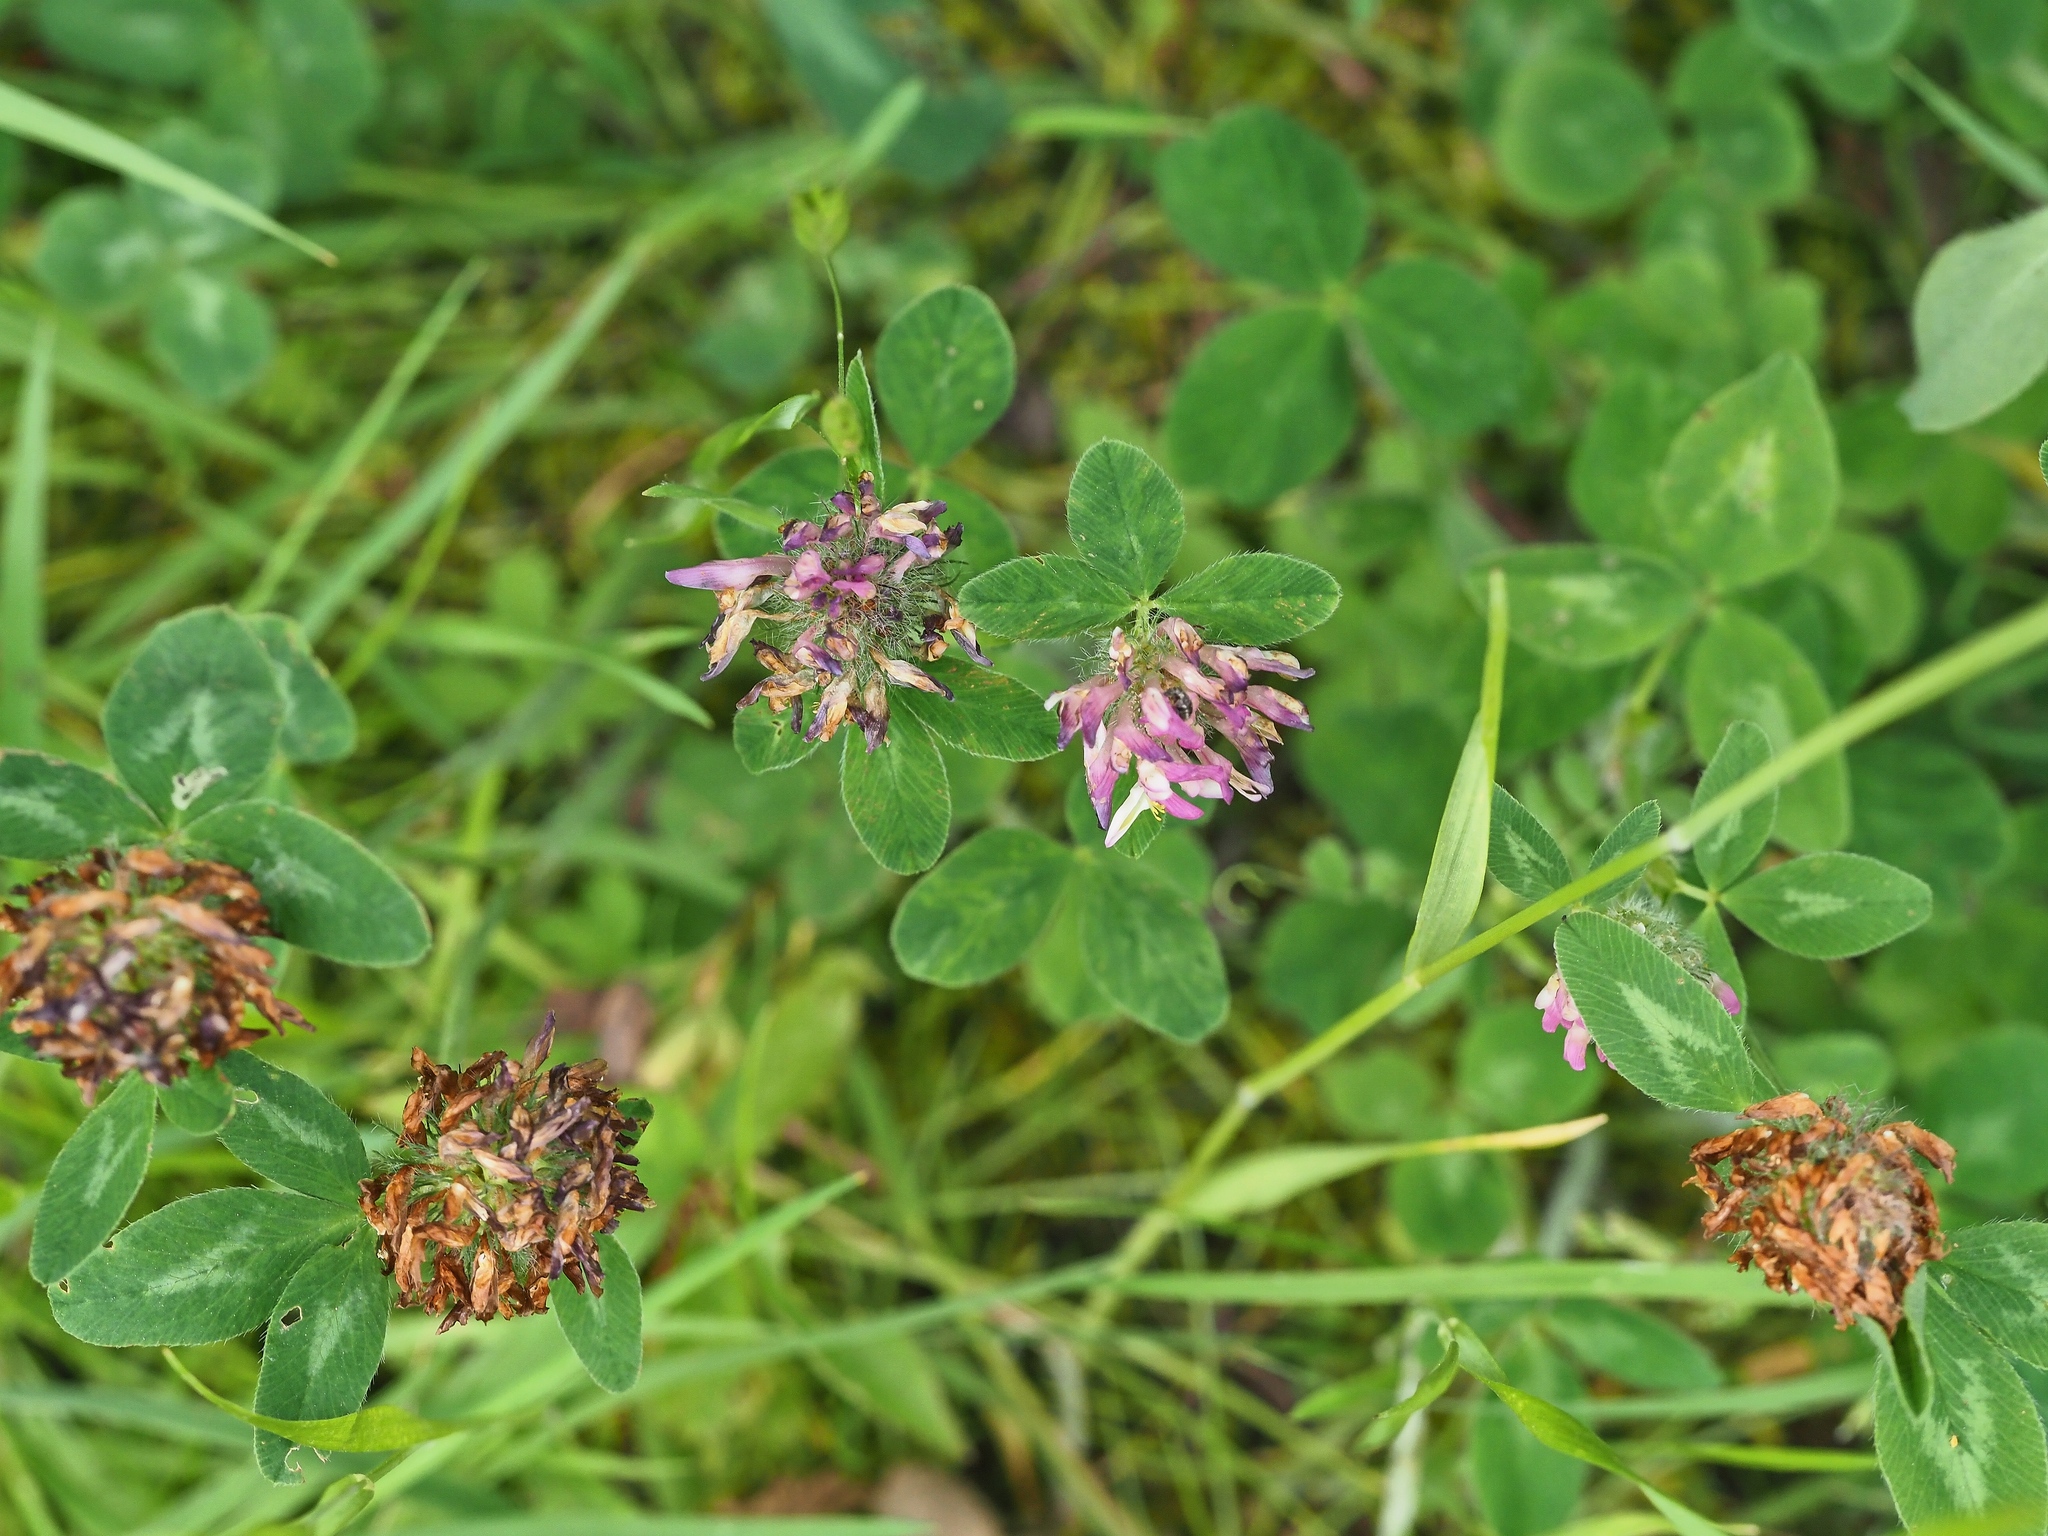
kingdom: Plantae
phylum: Tracheophyta
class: Magnoliopsida
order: Fabales
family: Fabaceae
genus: Trifolium
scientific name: Trifolium pratense
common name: Red clover
